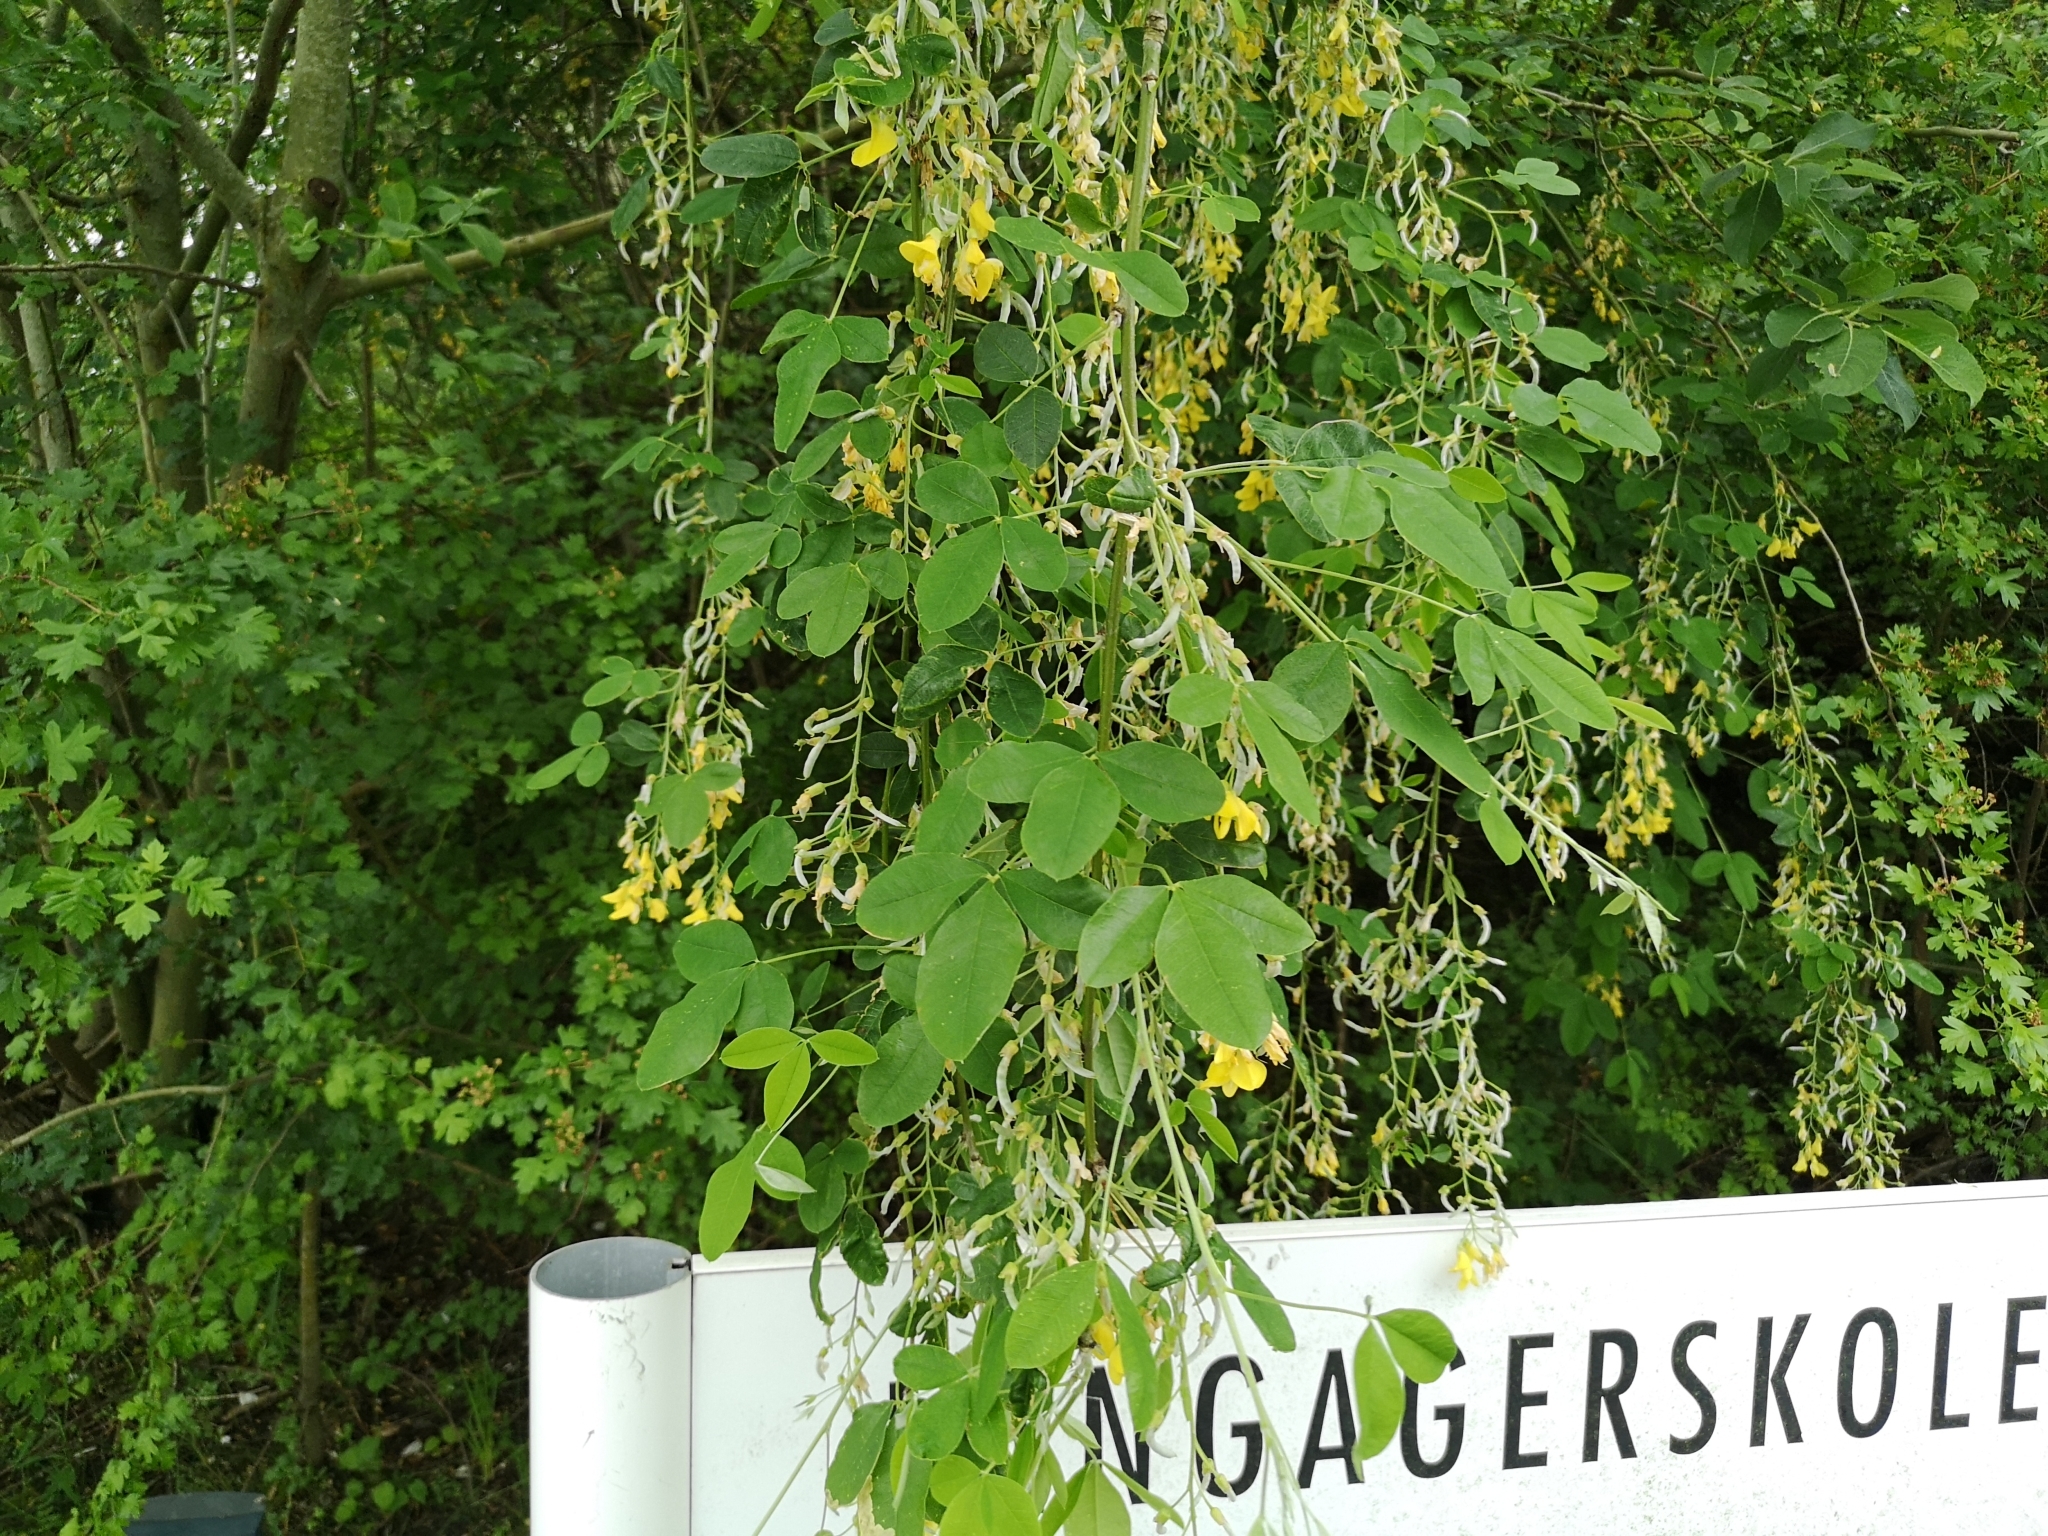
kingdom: Plantae
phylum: Tracheophyta
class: Magnoliopsida
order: Fabales
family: Fabaceae
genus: Laburnum
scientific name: Laburnum anagyroides
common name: Laburnum
